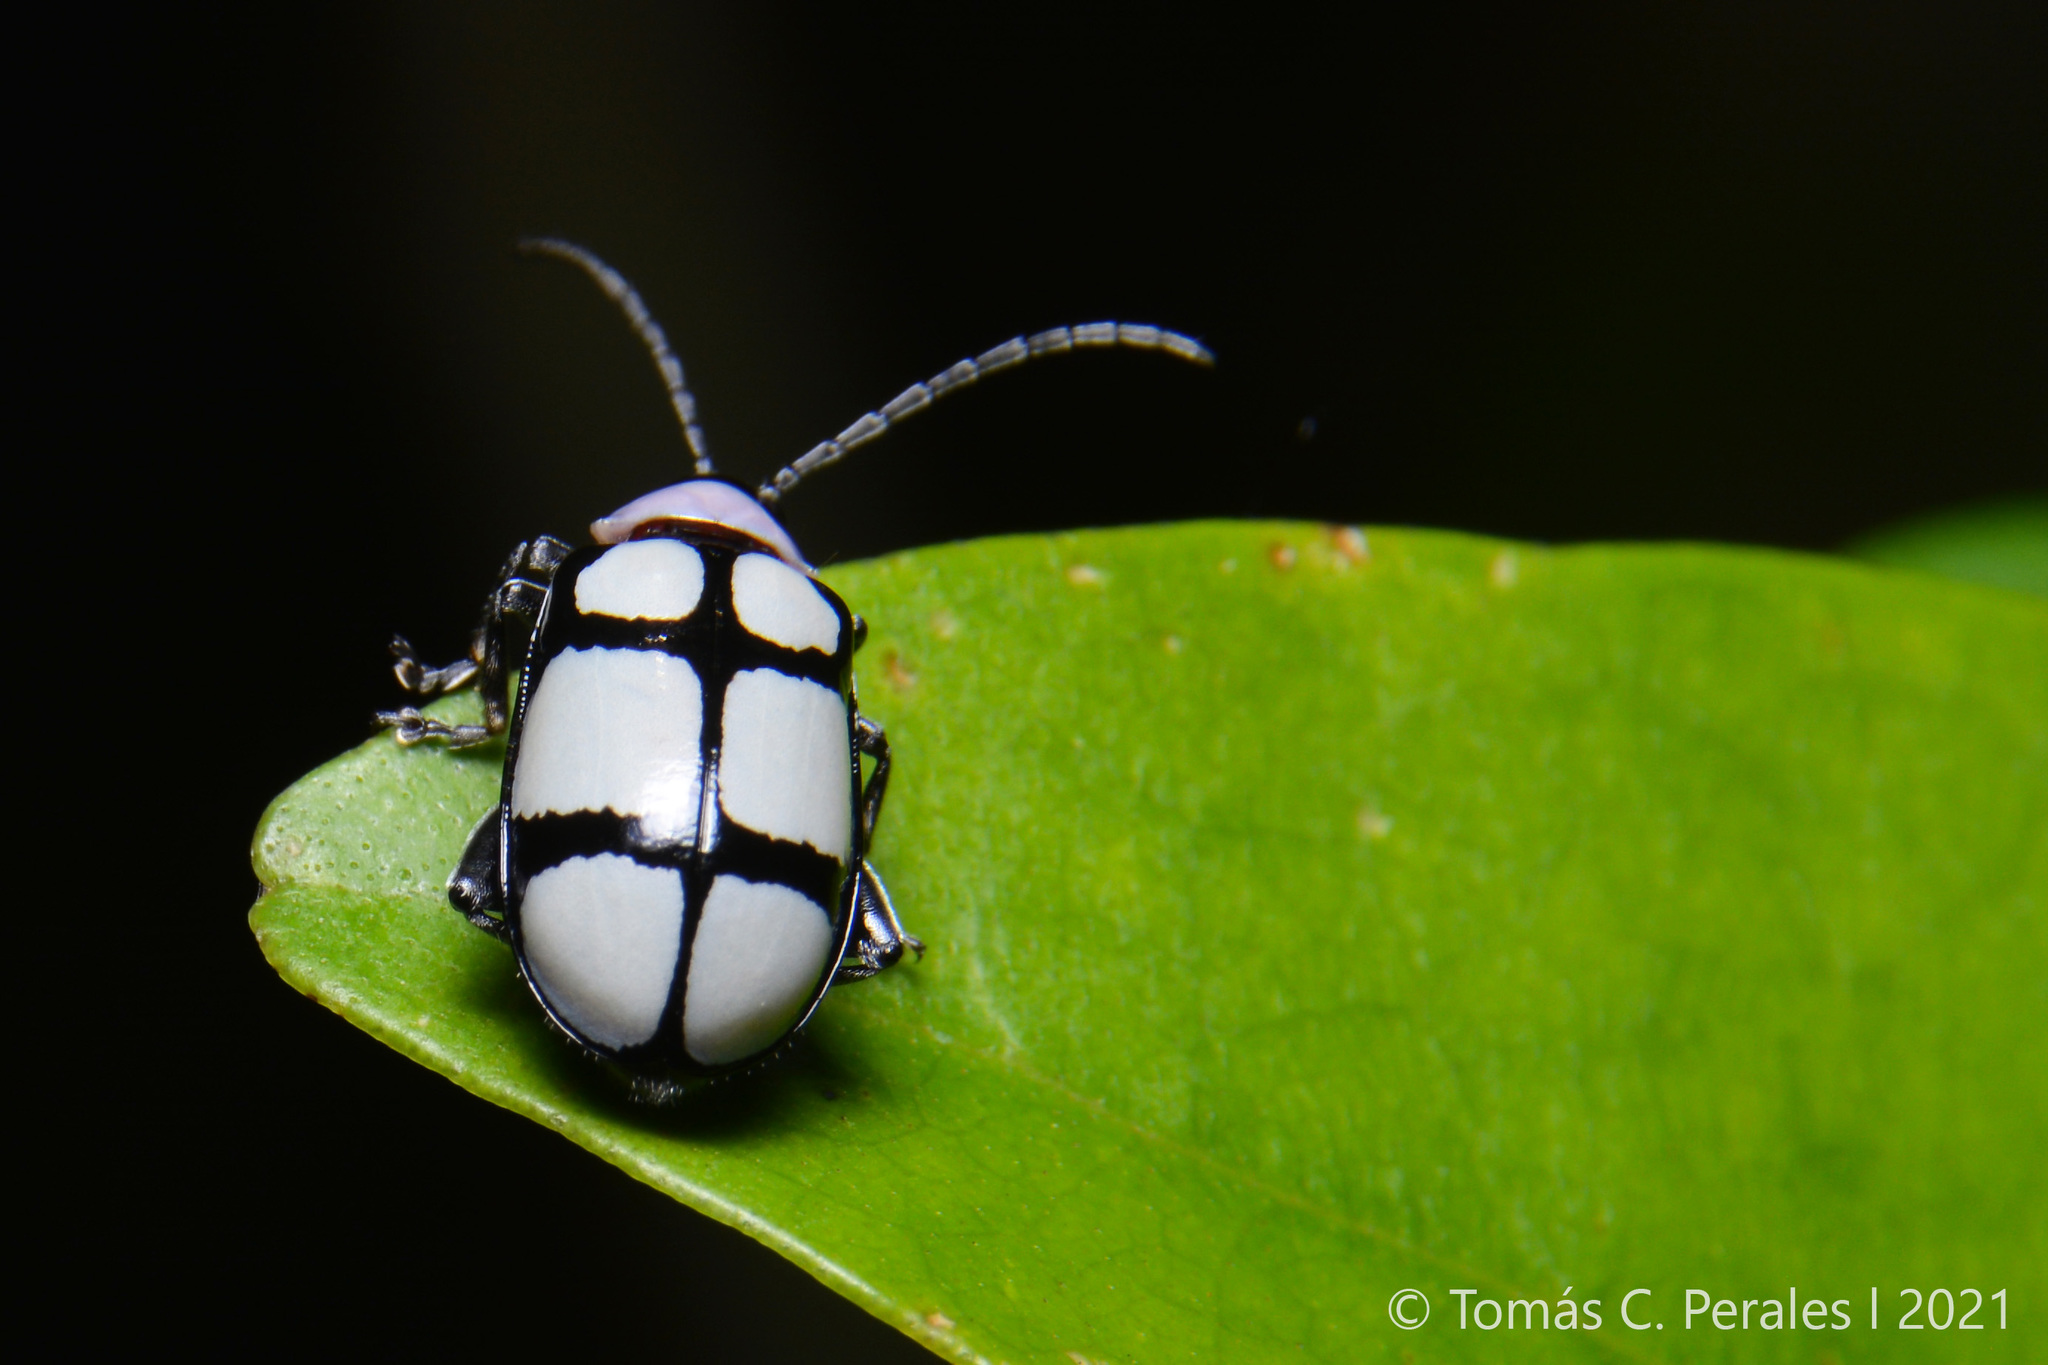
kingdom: Animalia
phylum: Arthropoda
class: Insecta
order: Coleoptera
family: Chrysomelidae
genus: Omophoita
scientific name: Omophoita
